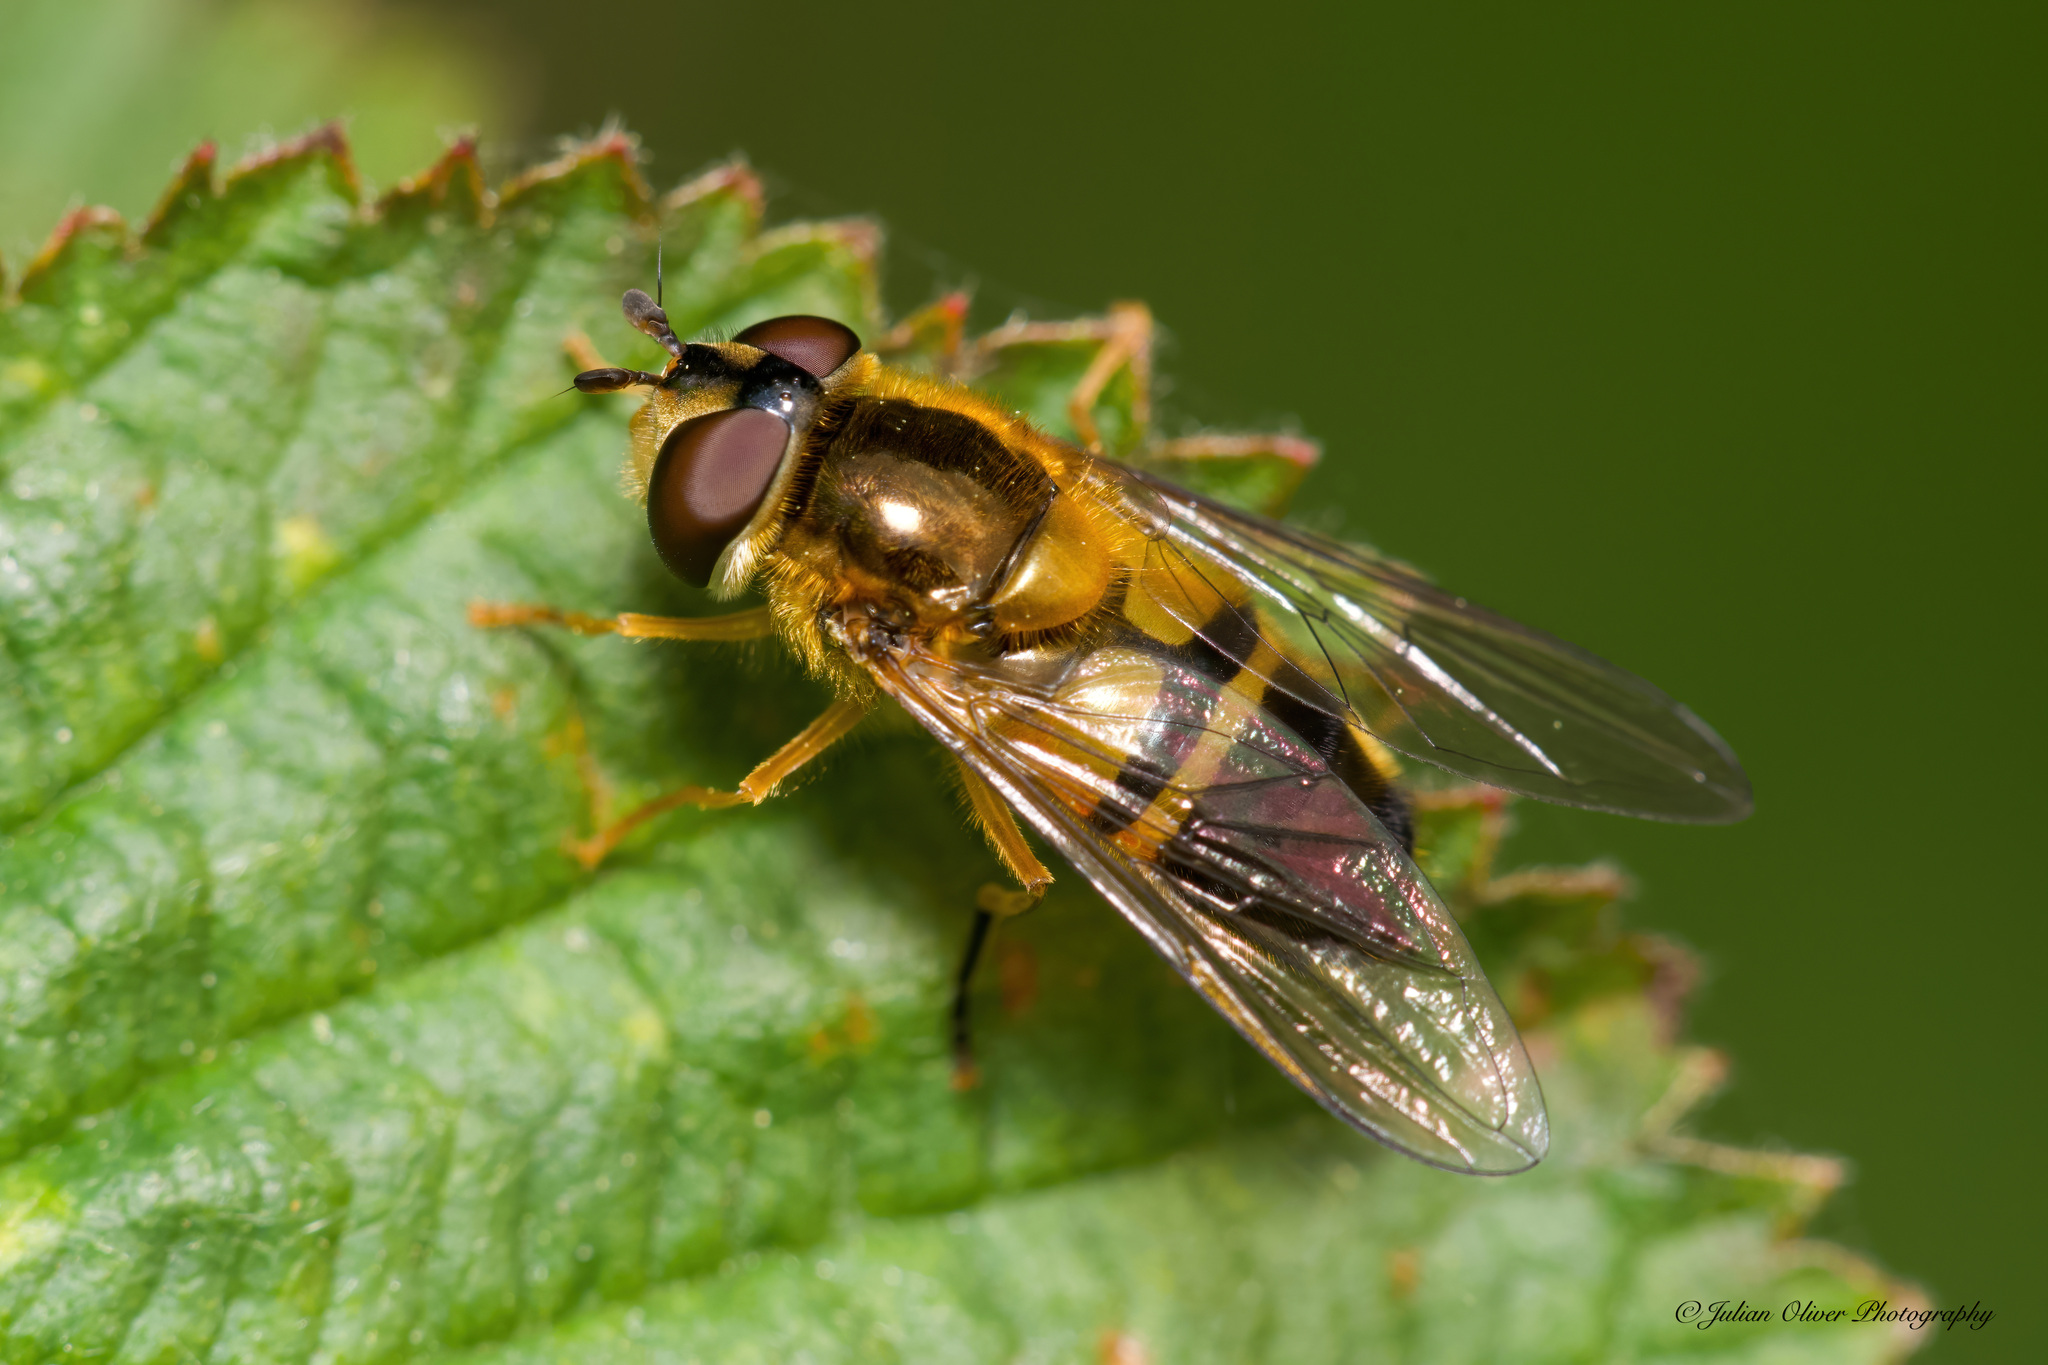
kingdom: Animalia
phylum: Arthropoda
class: Insecta
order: Diptera
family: Syrphidae
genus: Epistrophe
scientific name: Epistrophe eligans
